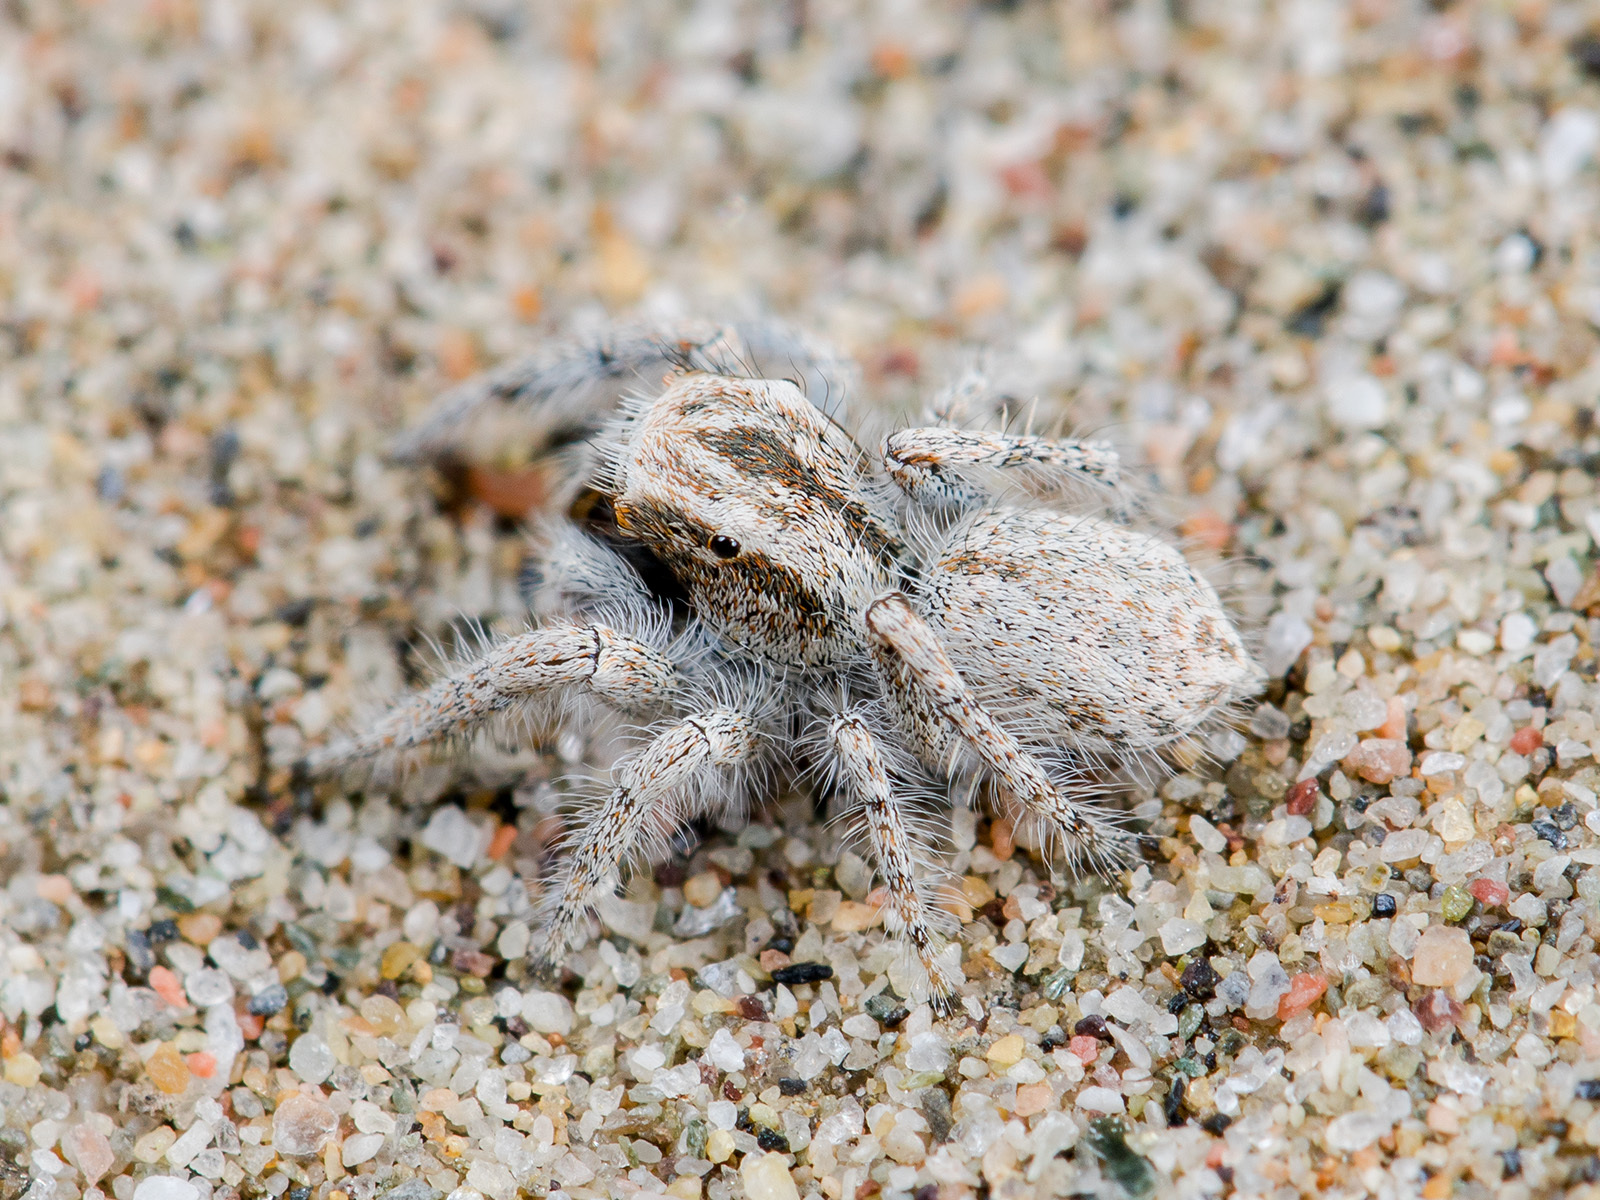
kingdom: Animalia
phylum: Arthropoda
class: Arachnida
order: Araneae
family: Salticidae
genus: Marusyllus
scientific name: Marusyllus aralicus
